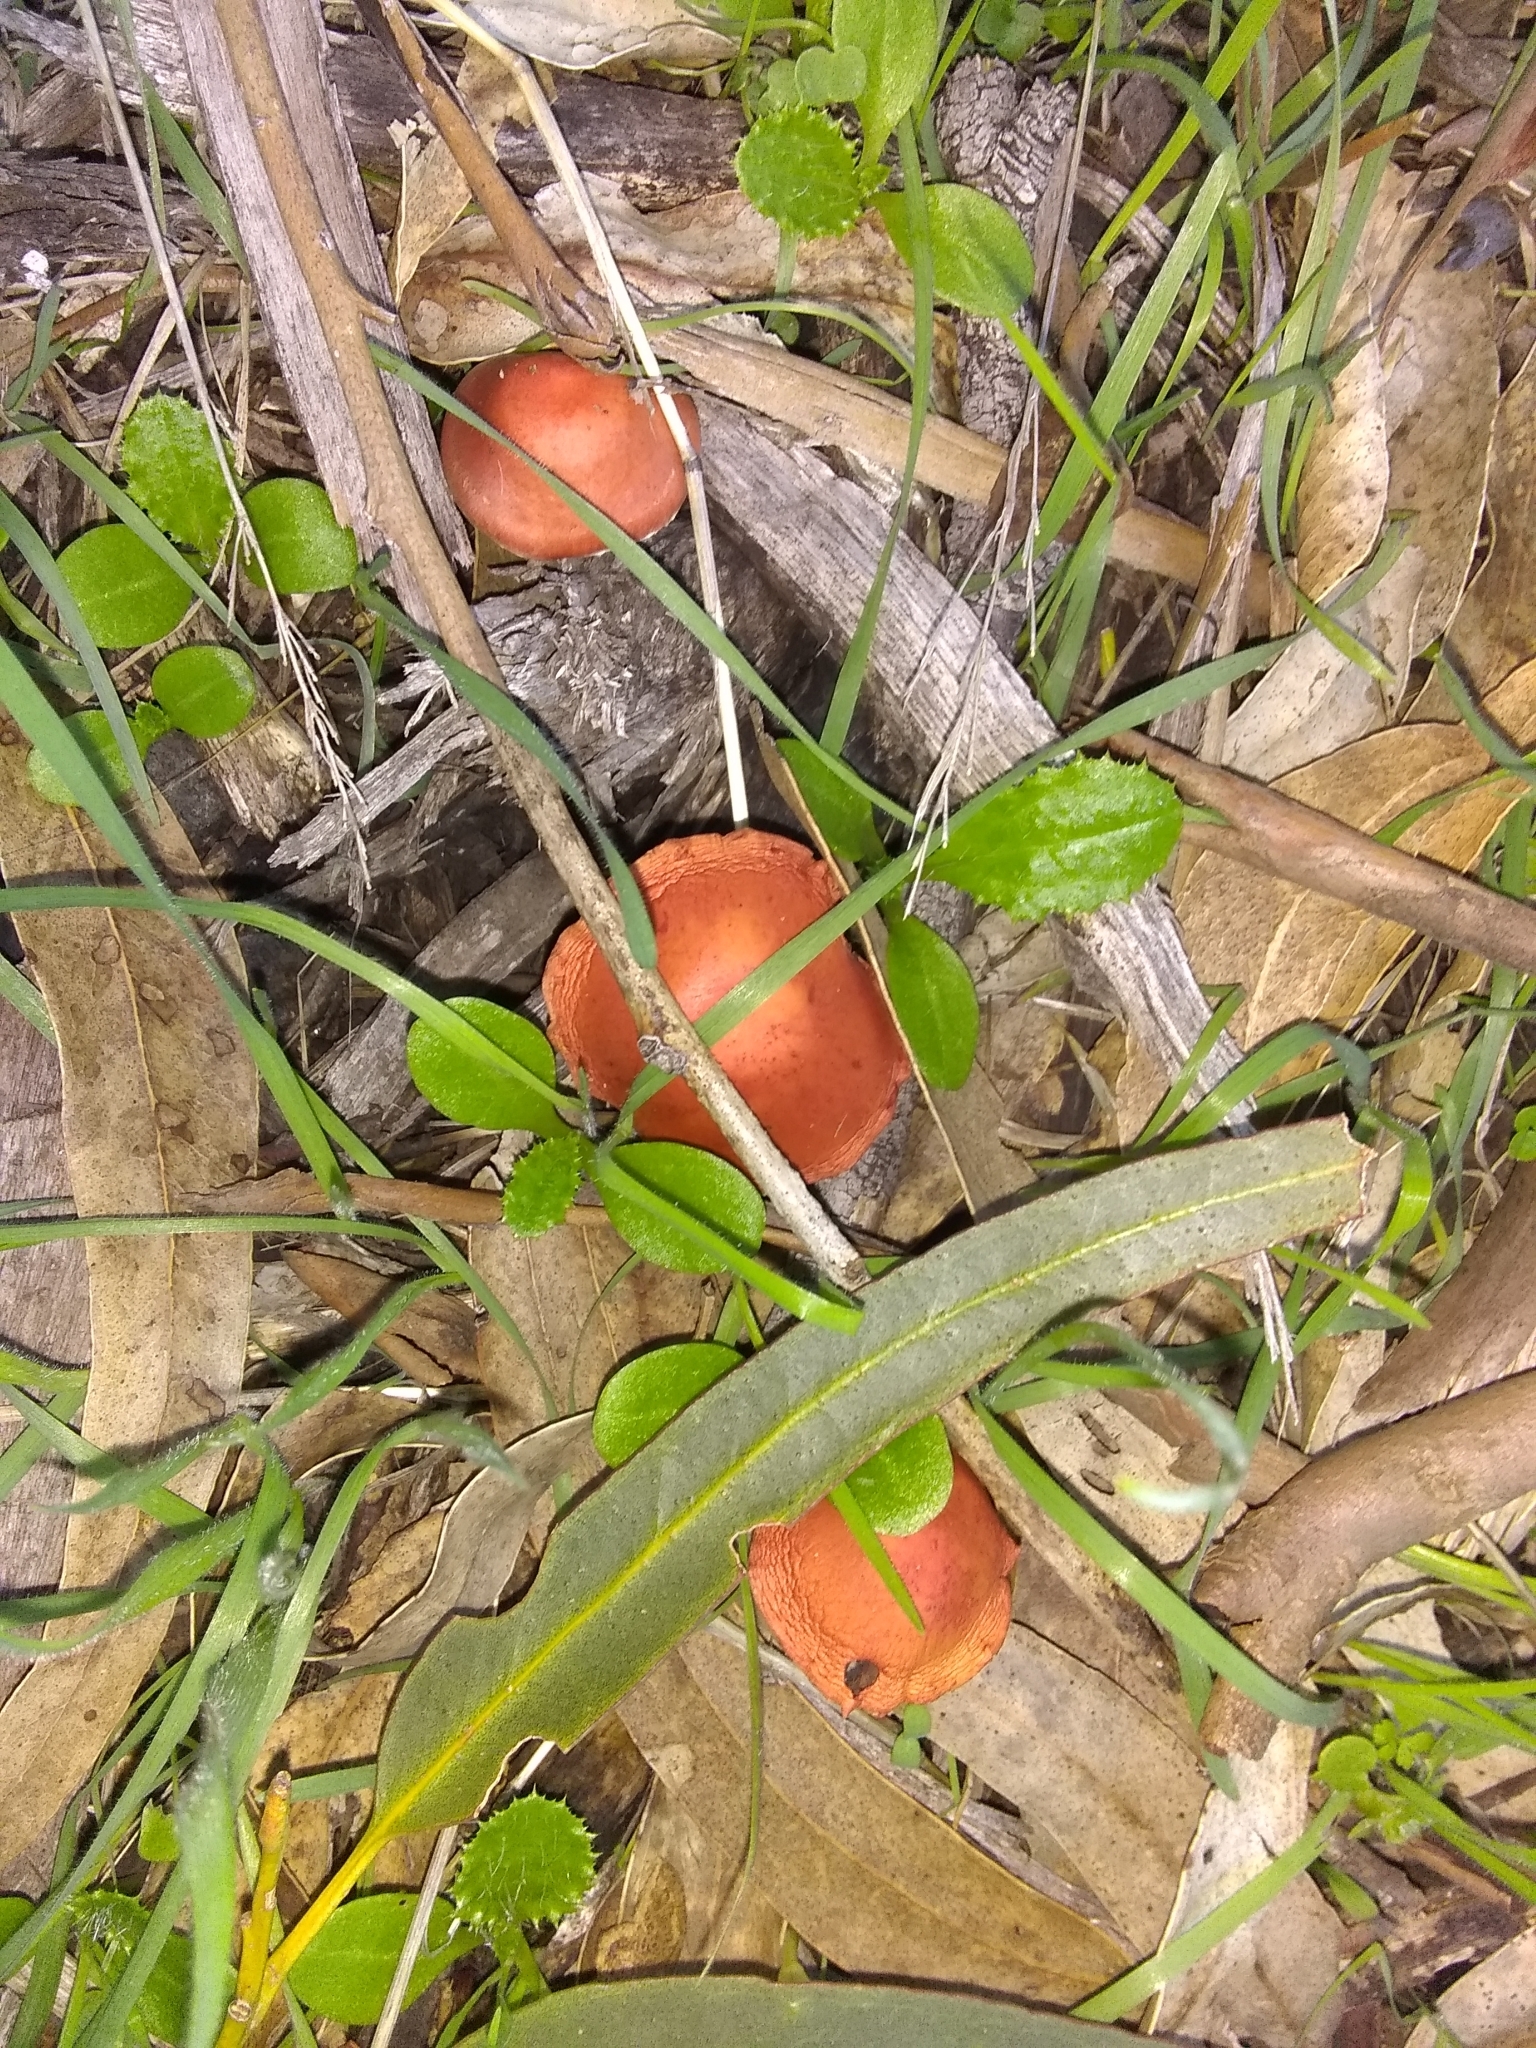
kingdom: Fungi
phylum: Basidiomycota
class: Agaricomycetes
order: Agaricales
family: Strophariaceae
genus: Leratiomyces
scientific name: Leratiomyces ceres
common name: Redlead roundhead
